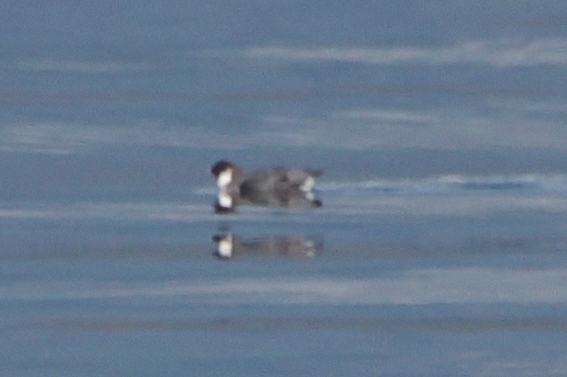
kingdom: Animalia
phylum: Chordata
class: Aves
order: Charadriiformes
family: Alcidae
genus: Synthliboramphus
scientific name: Synthliboramphus antiquus
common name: Ancient murrelet
